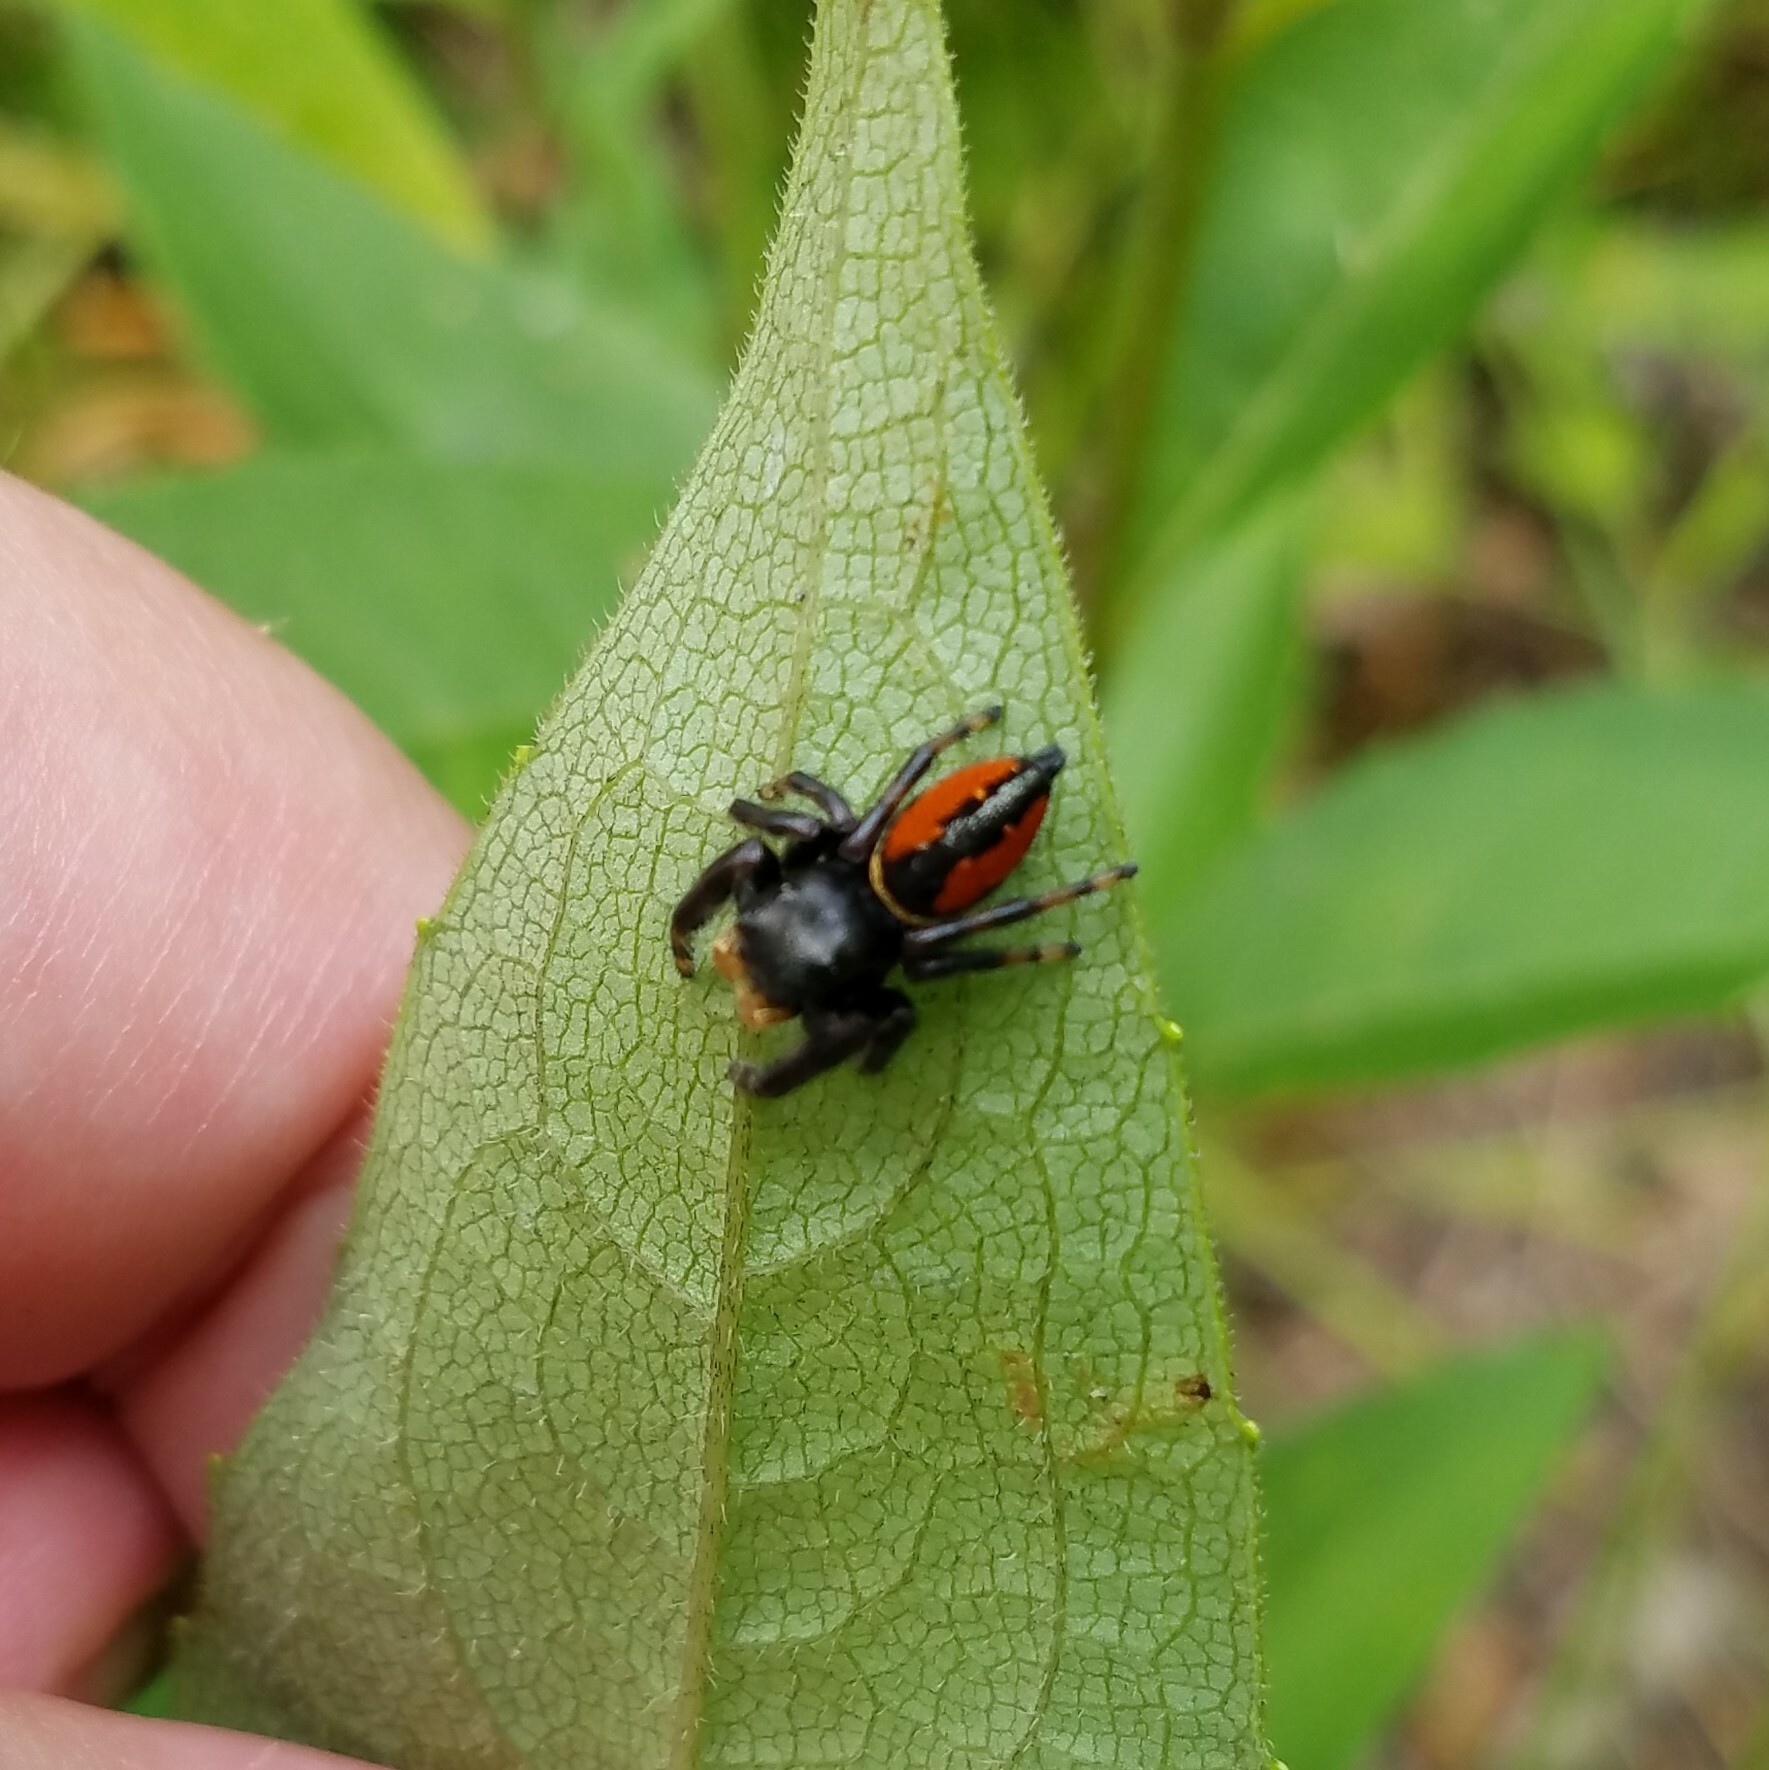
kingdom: Animalia
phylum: Arthropoda
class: Arachnida
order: Araneae
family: Salticidae
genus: Phidippus
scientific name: Phidippus clarus
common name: Brilliant jumping spider
